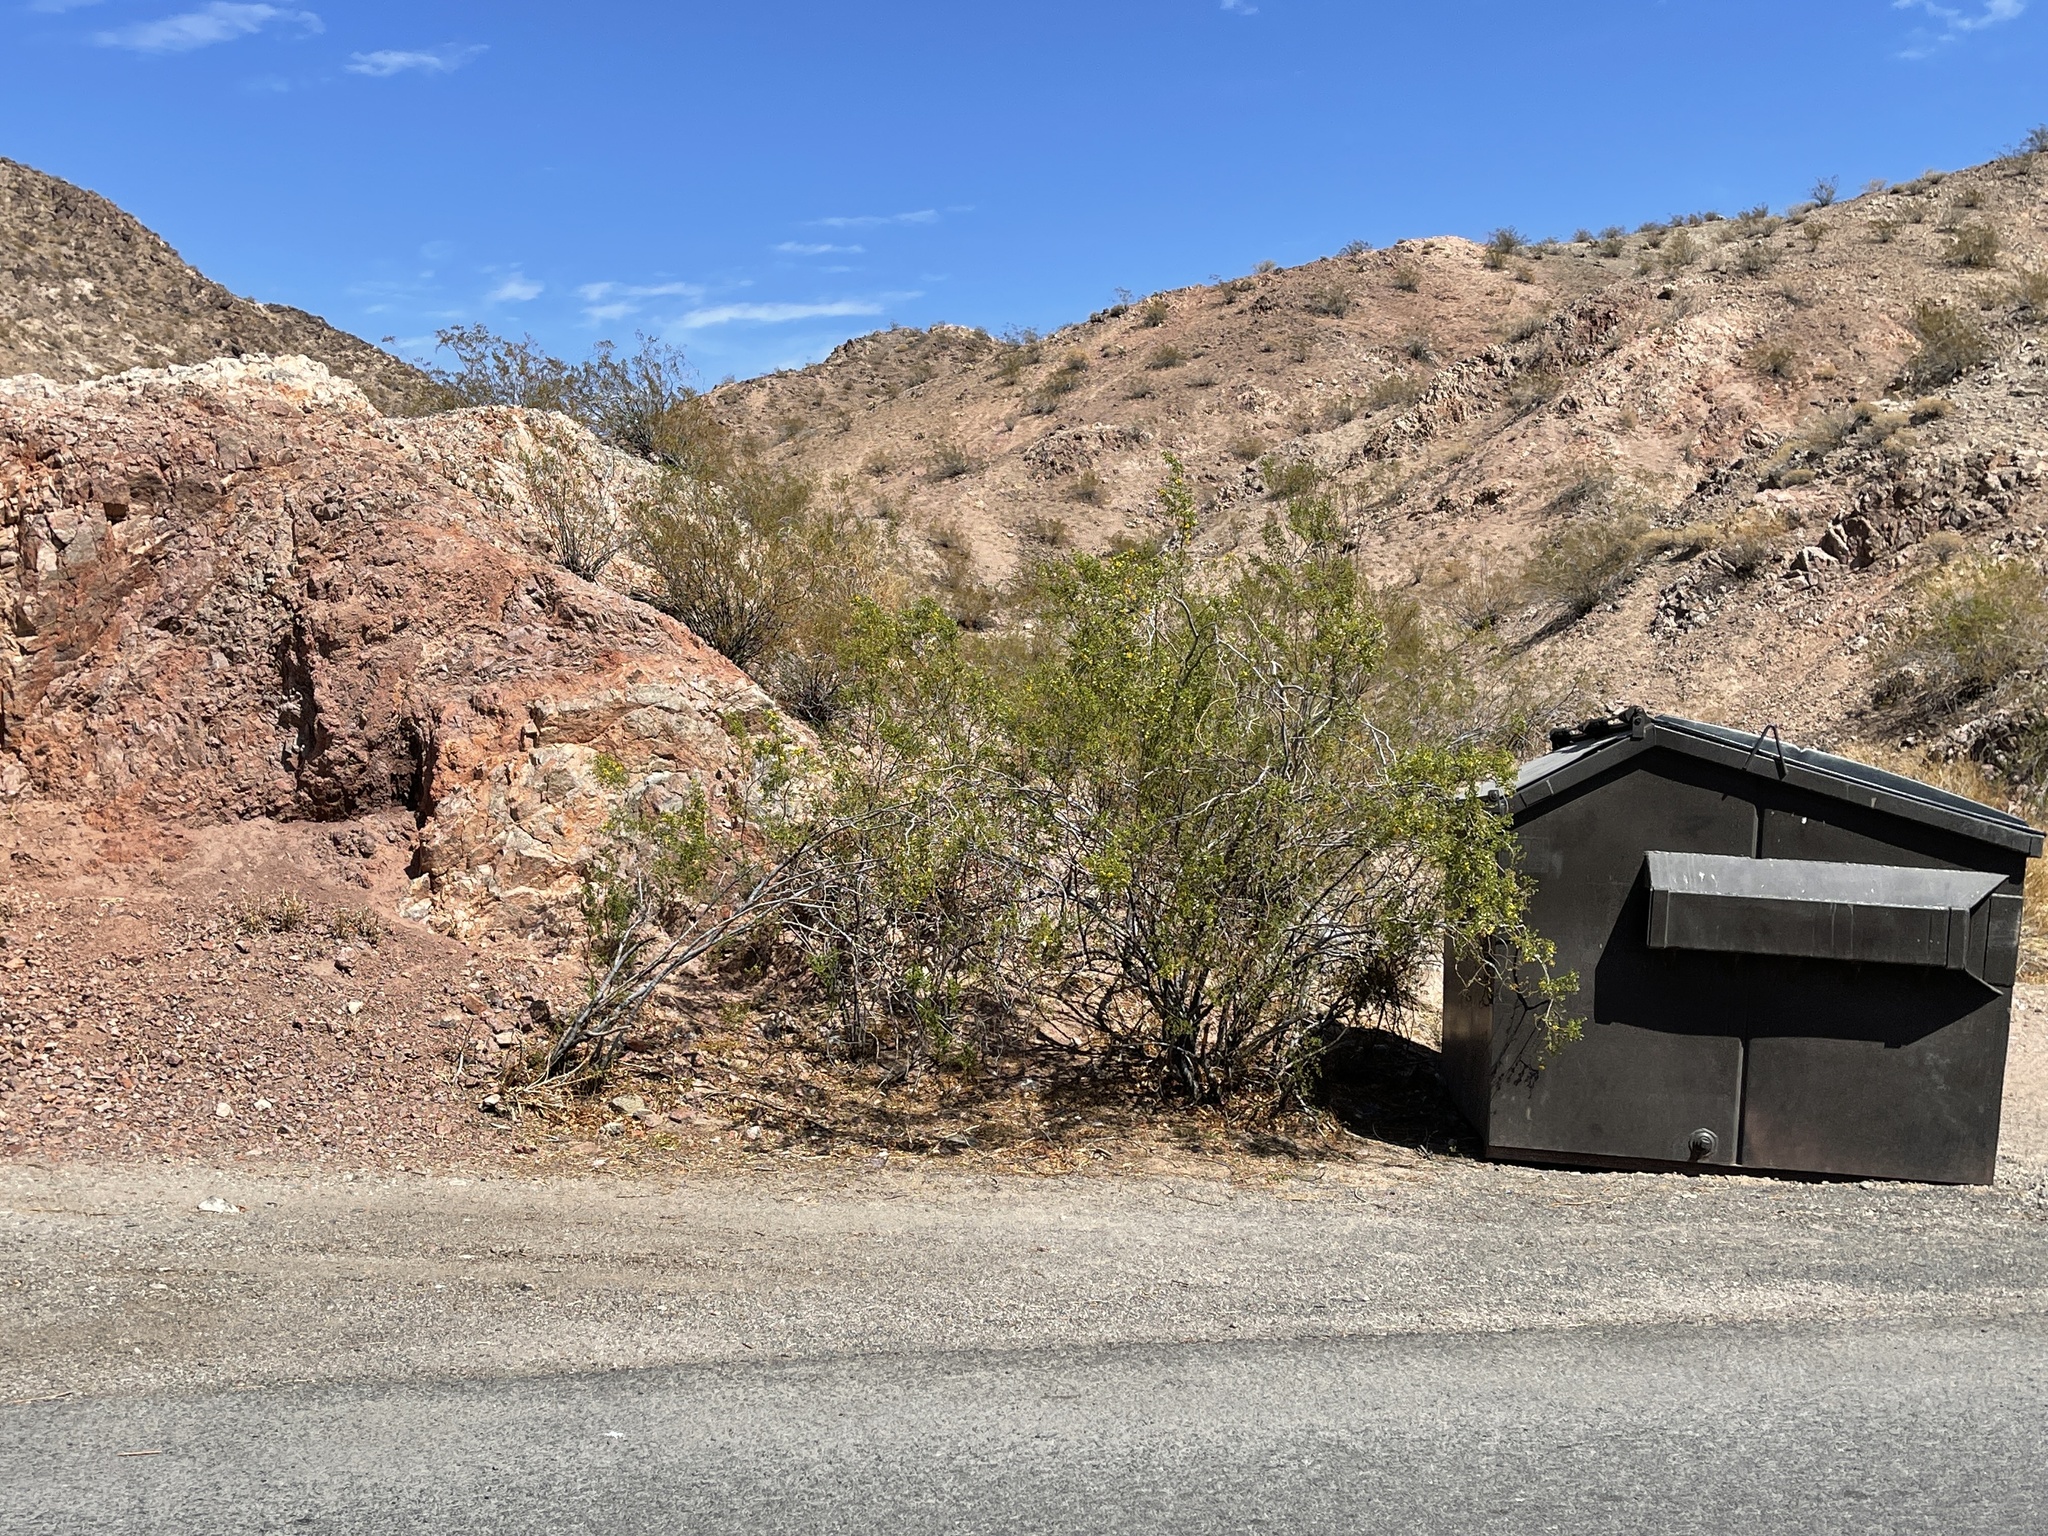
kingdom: Plantae
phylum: Tracheophyta
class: Magnoliopsida
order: Zygophyllales
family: Zygophyllaceae
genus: Larrea
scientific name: Larrea tridentata
